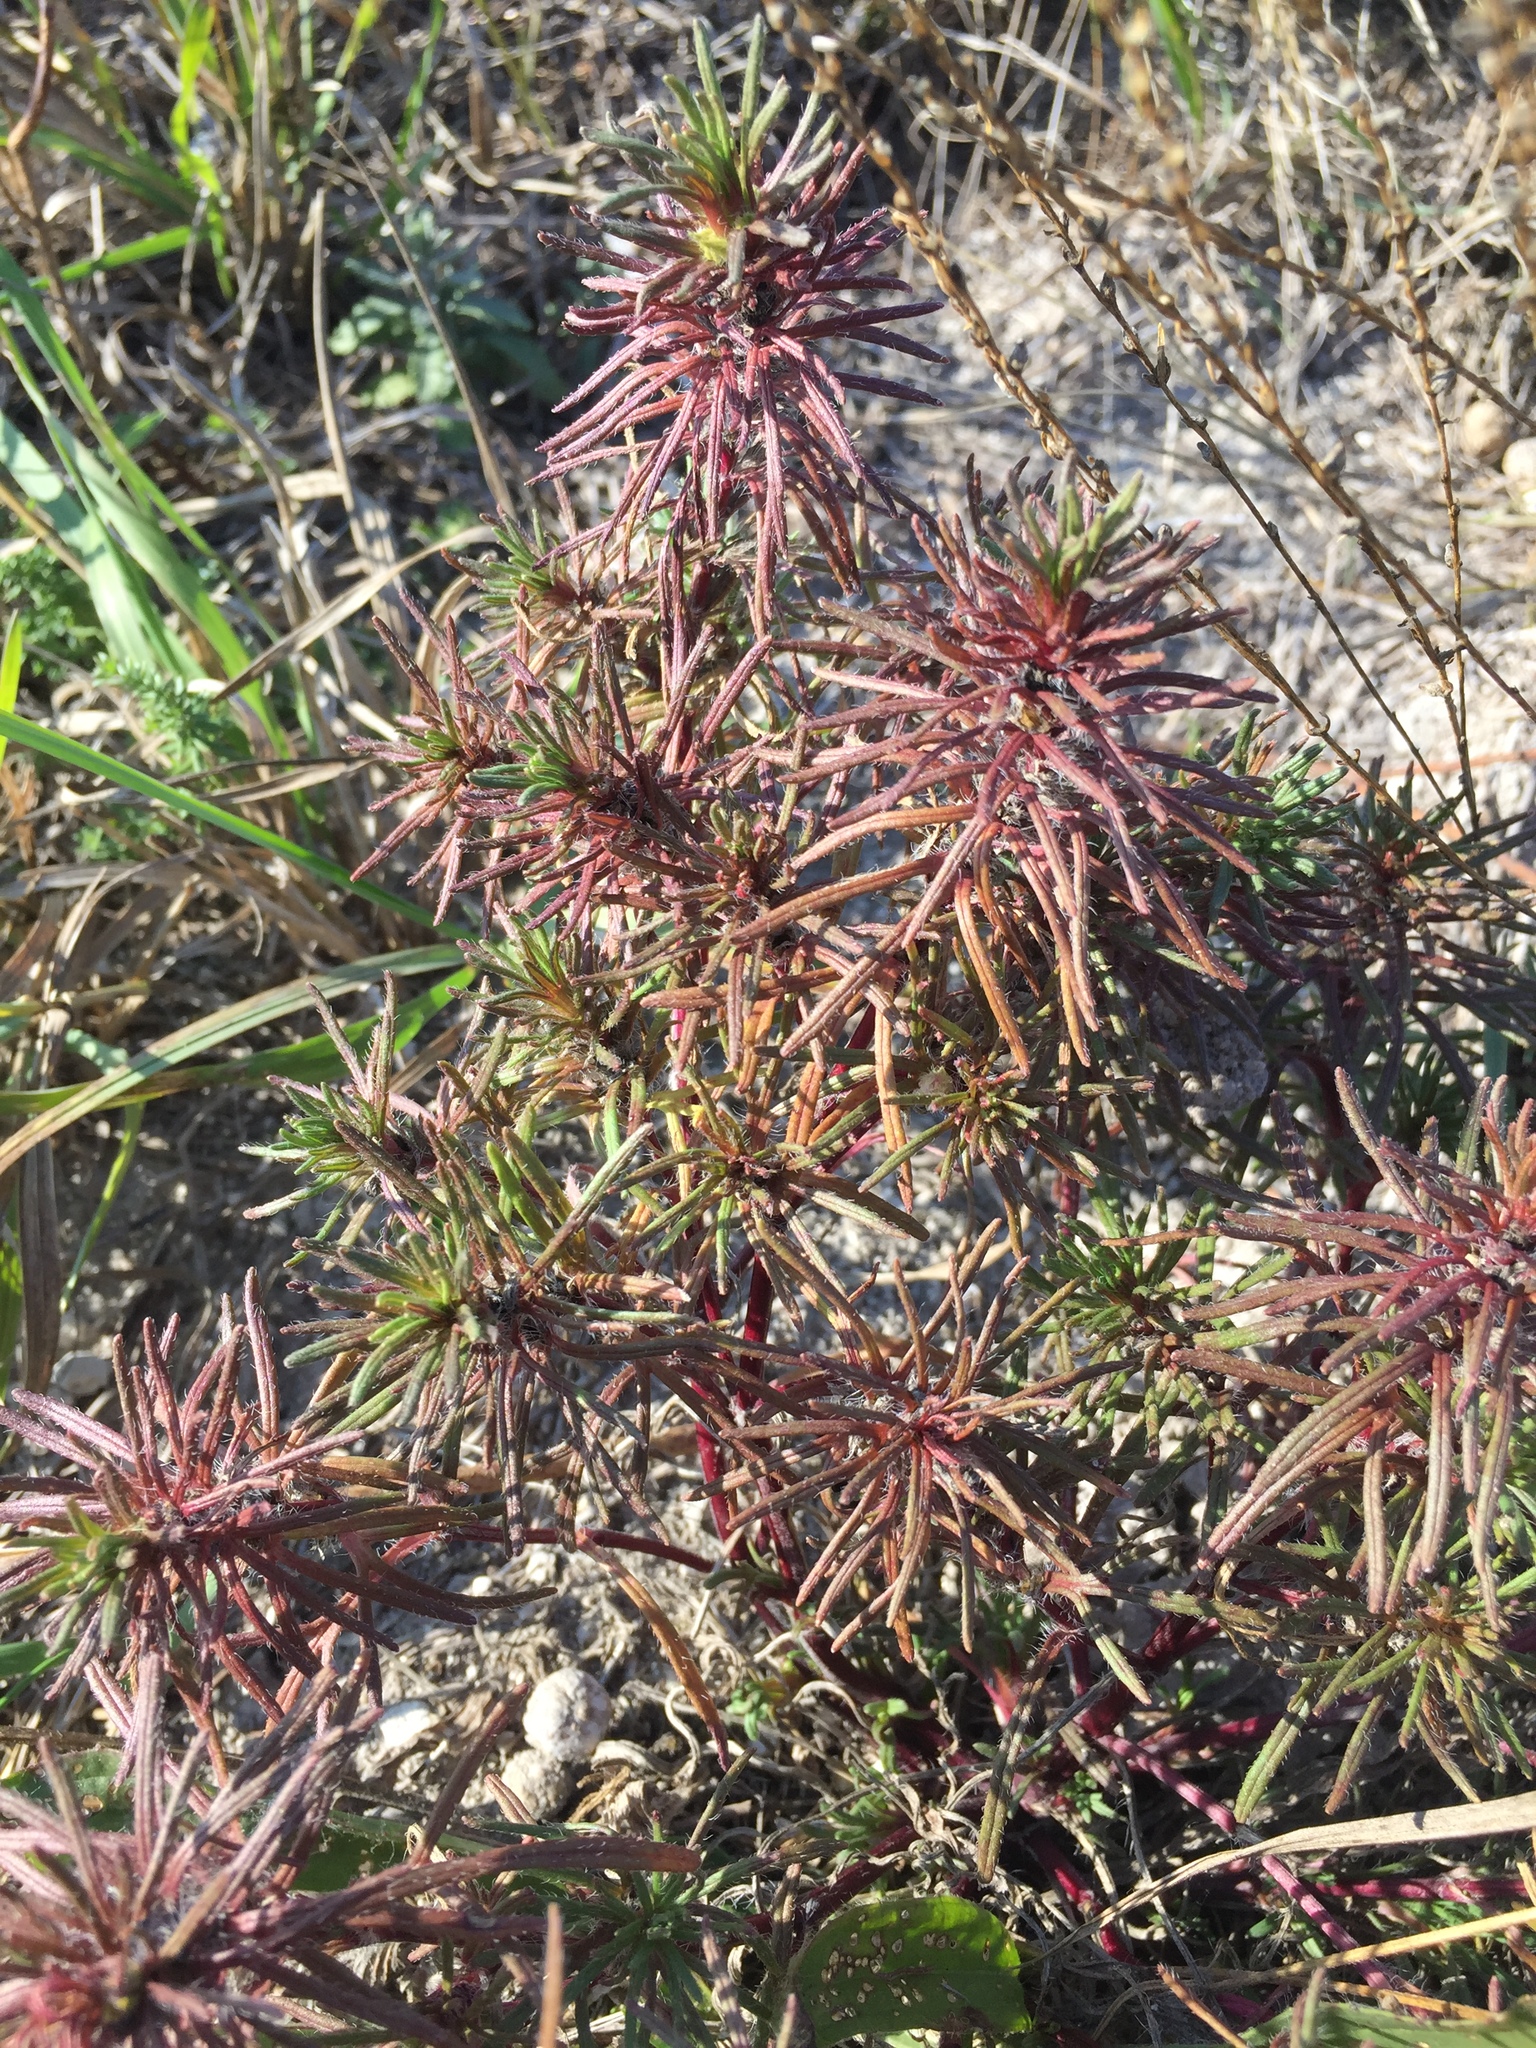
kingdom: Plantae
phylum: Tracheophyta
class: Magnoliopsida
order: Lamiales
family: Lamiaceae
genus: Ajuga
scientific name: Ajuga chamaepitys
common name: Ground-pine
